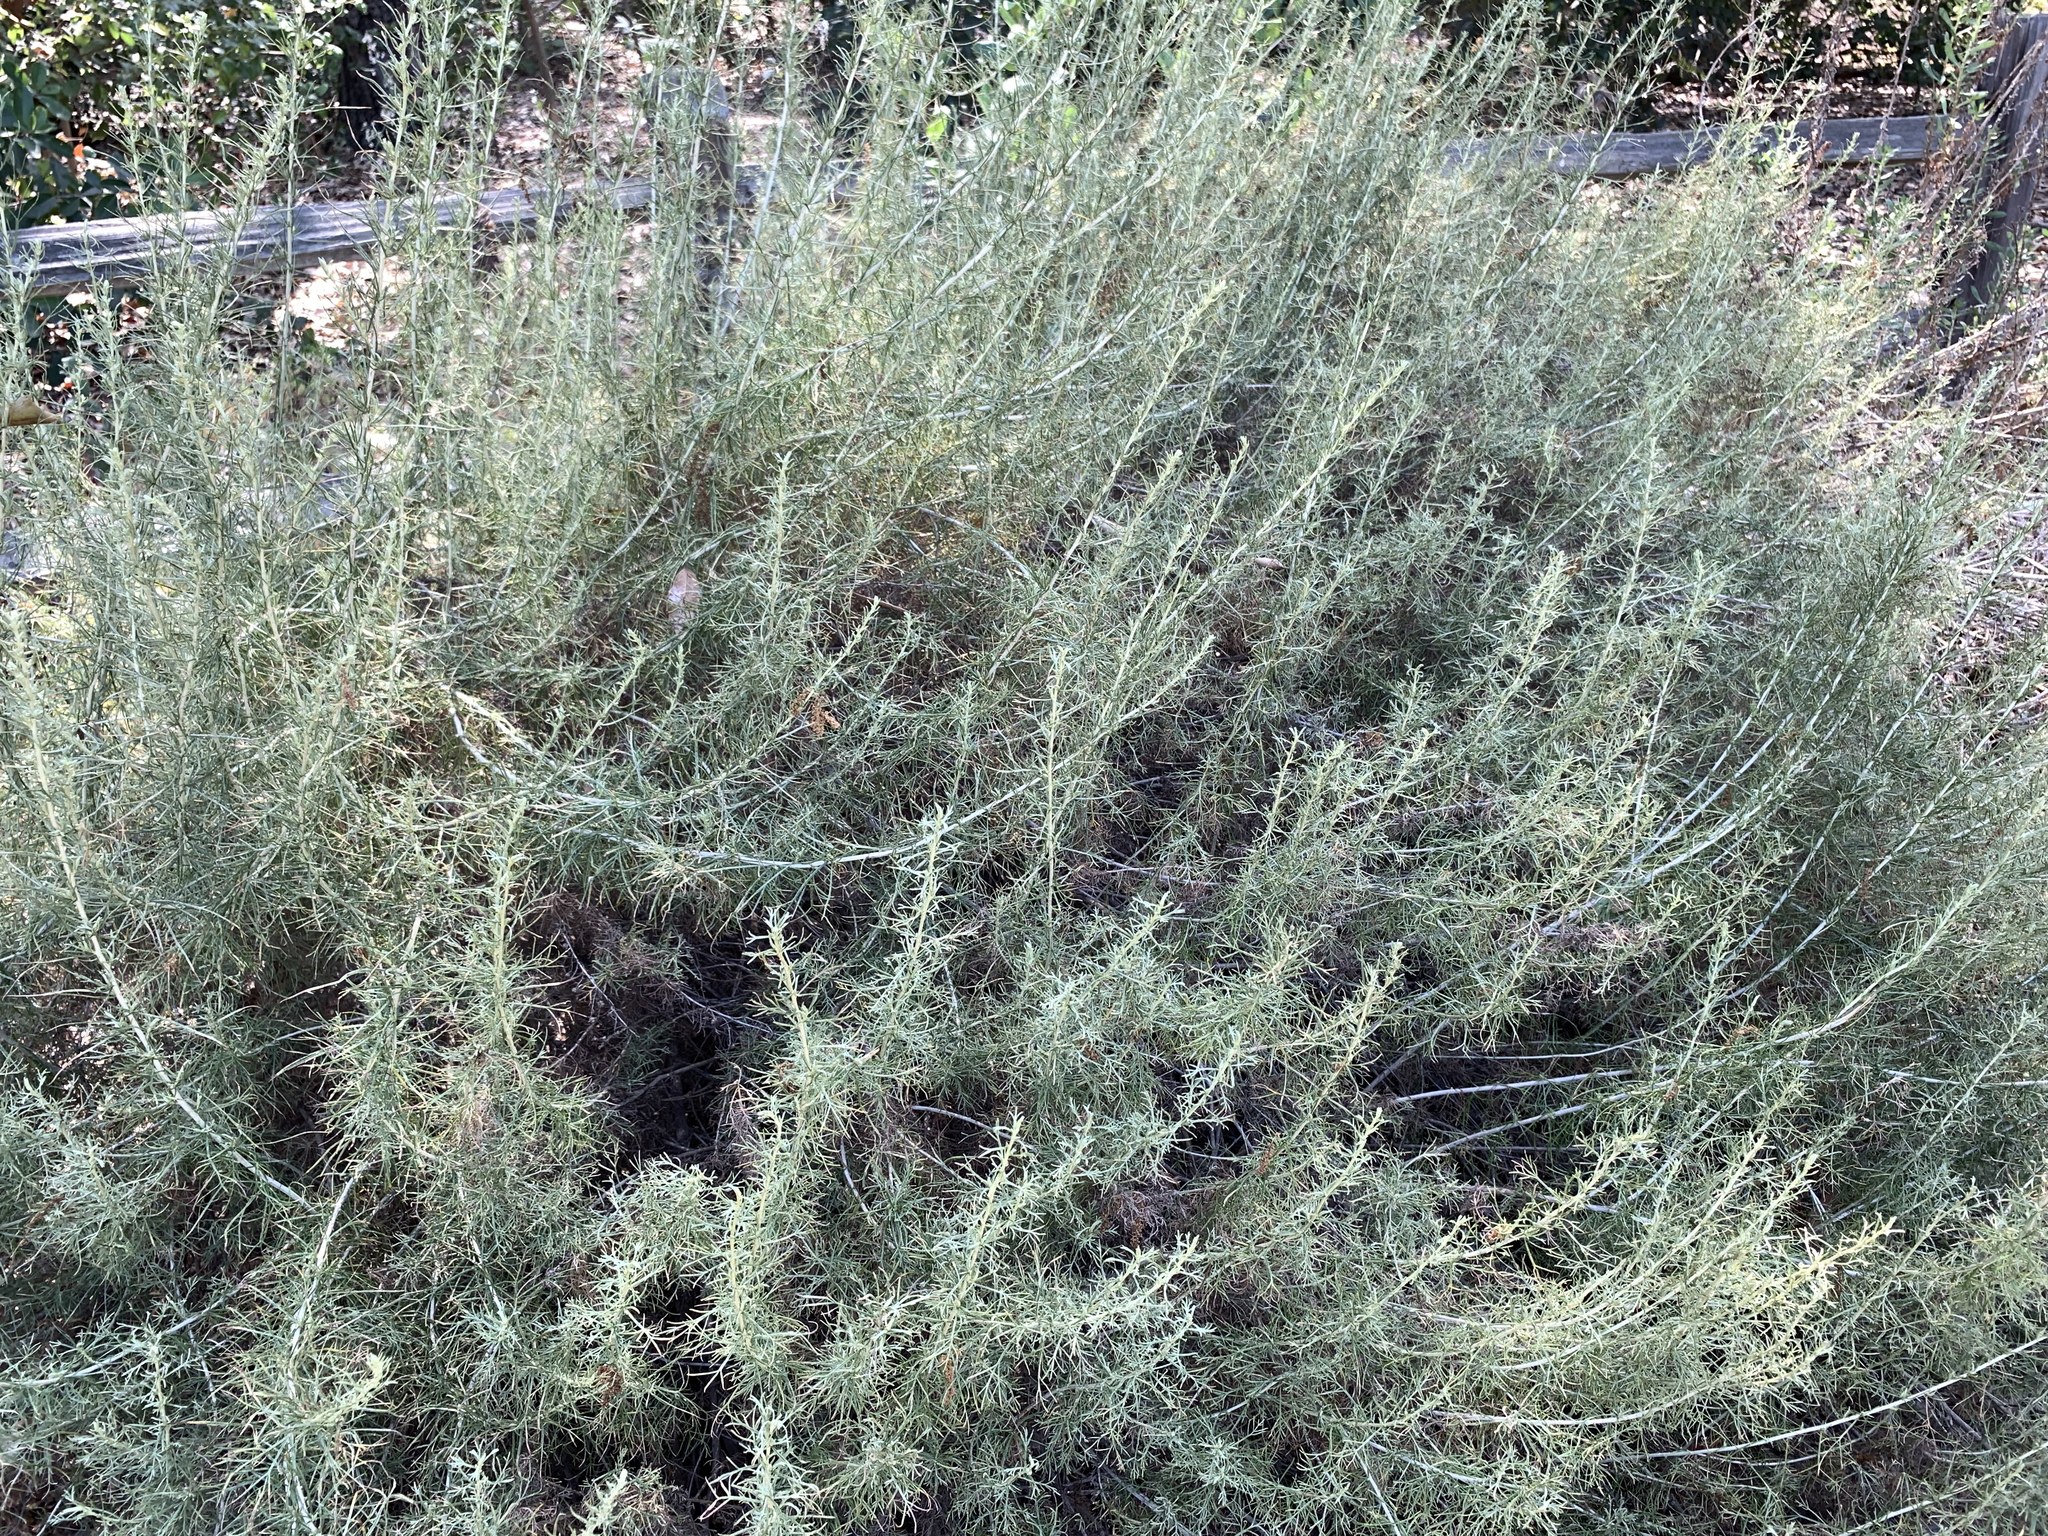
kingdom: Plantae
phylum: Tracheophyta
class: Magnoliopsida
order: Asterales
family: Asteraceae
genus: Artemisia
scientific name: Artemisia californica
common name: California sagebrush
